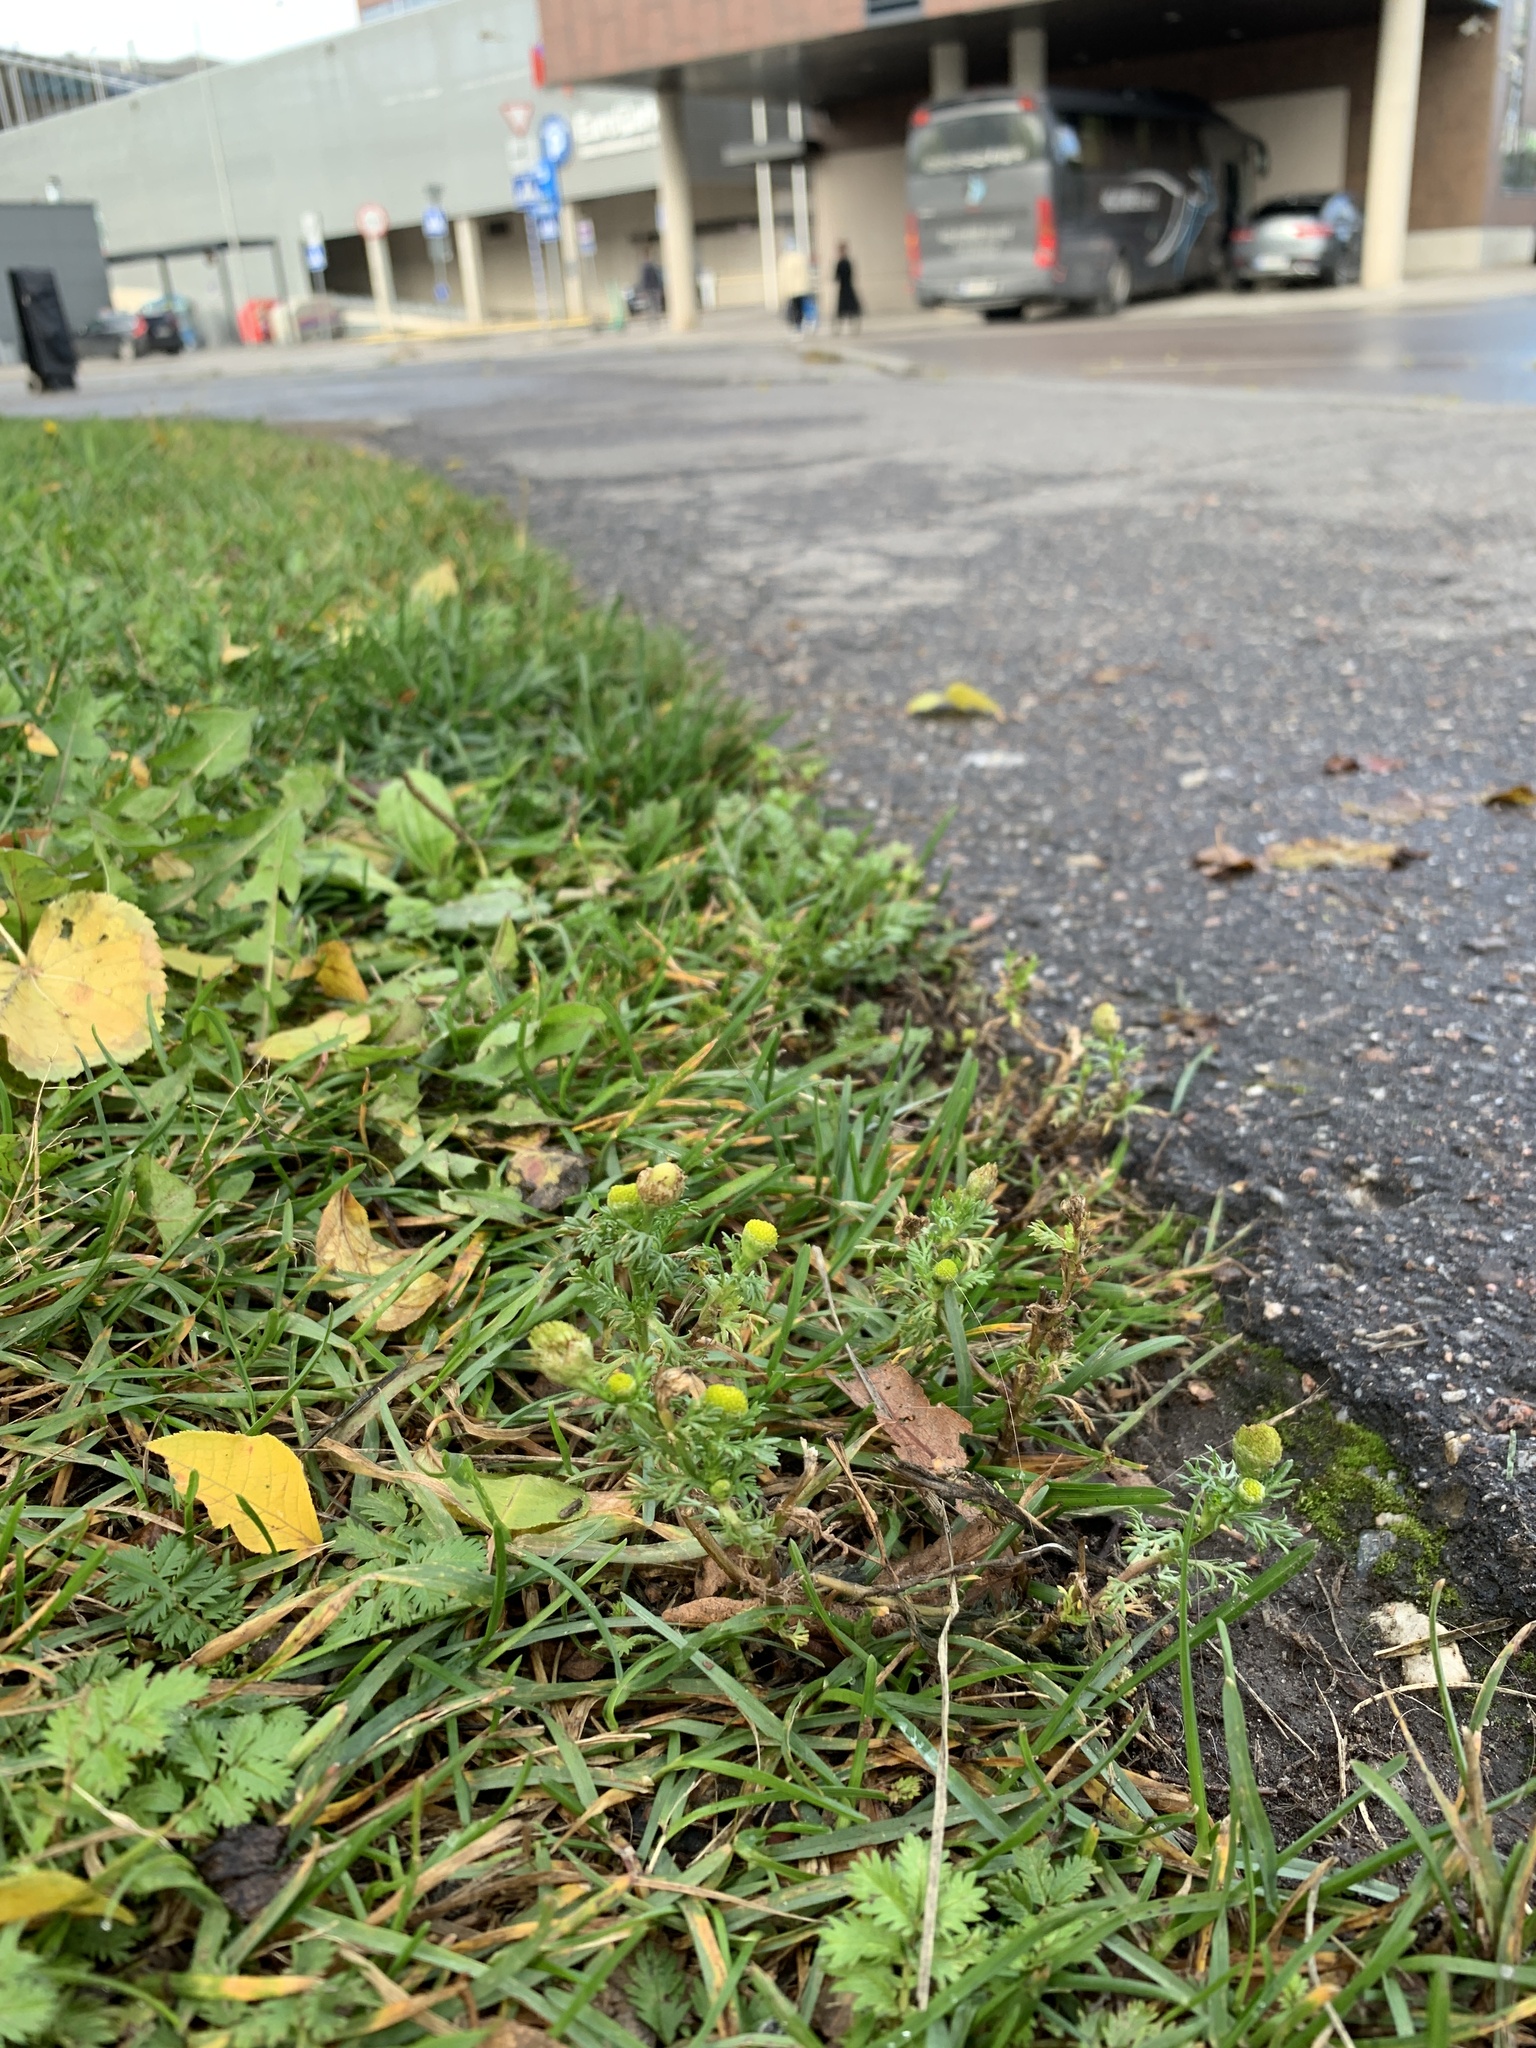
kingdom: Plantae
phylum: Tracheophyta
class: Magnoliopsida
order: Asterales
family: Asteraceae
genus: Matricaria
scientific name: Matricaria discoidea
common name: Disc mayweed
